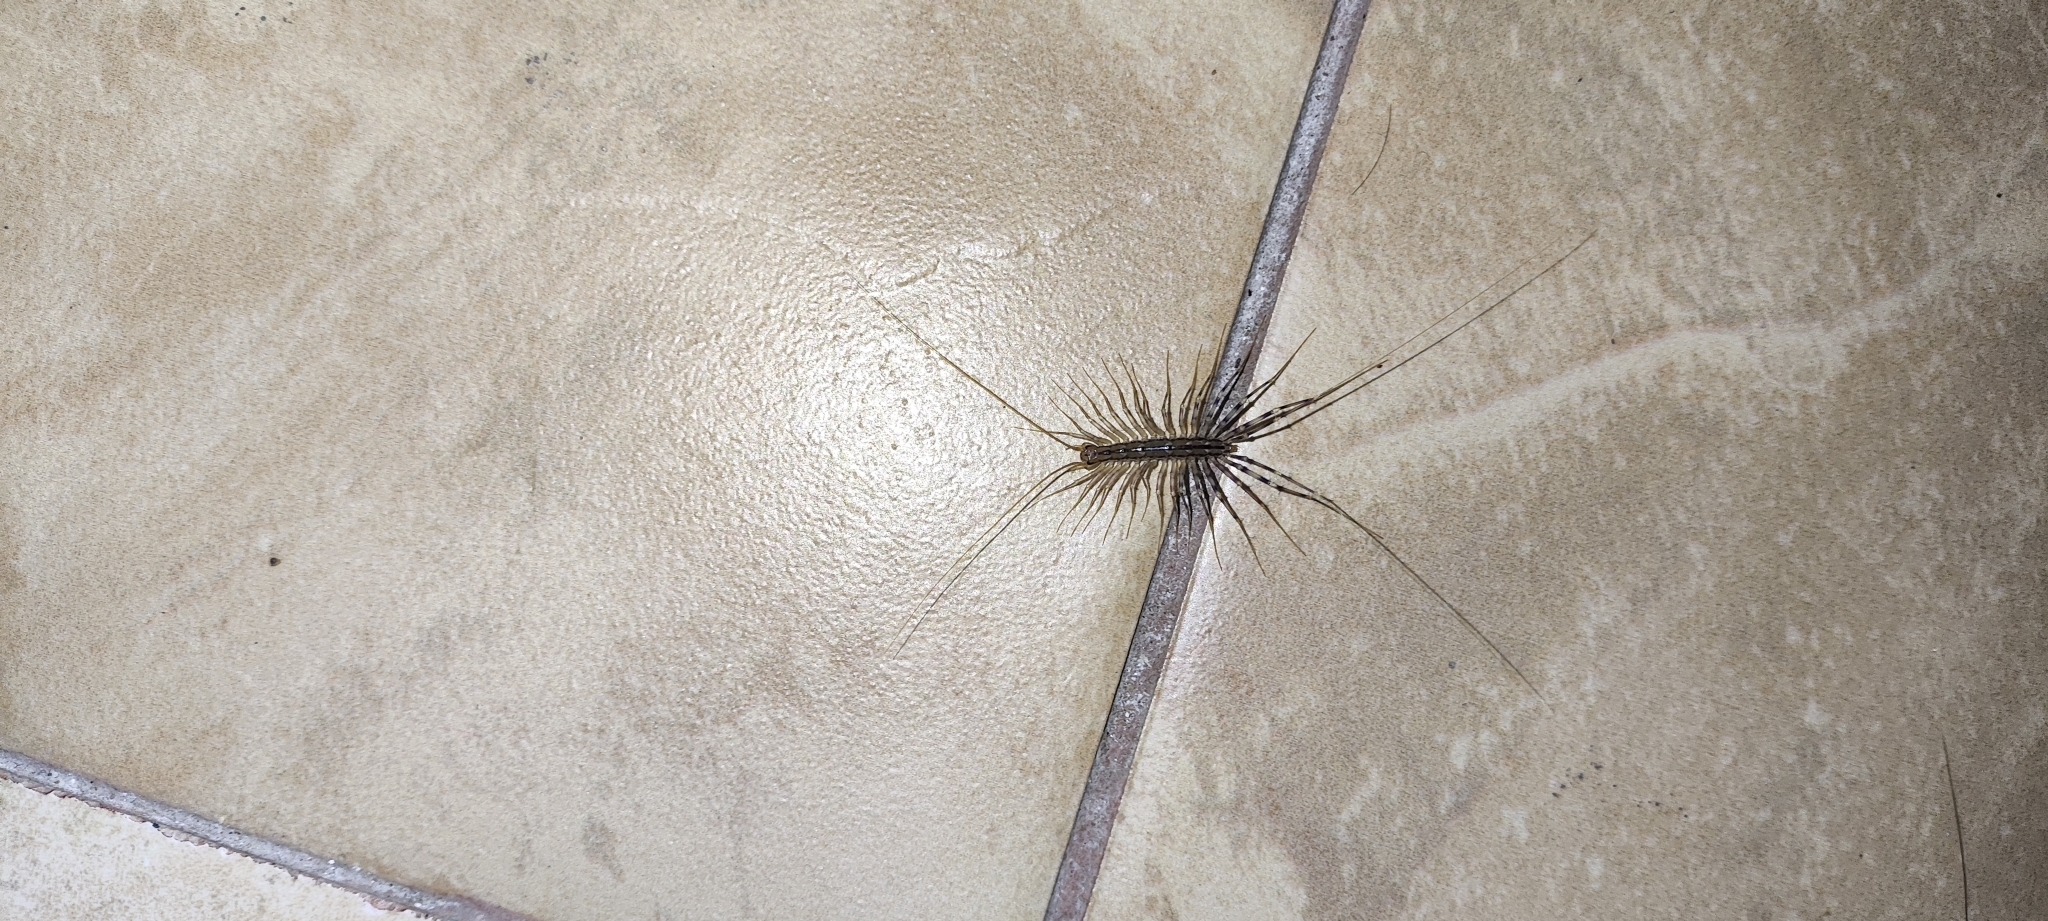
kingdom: Animalia
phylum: Arthropoda
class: Chilopoda
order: Scutigeromorpha
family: Scutigeridae
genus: Scutigera
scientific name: Scutigera coleoptrata
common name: House centipede
